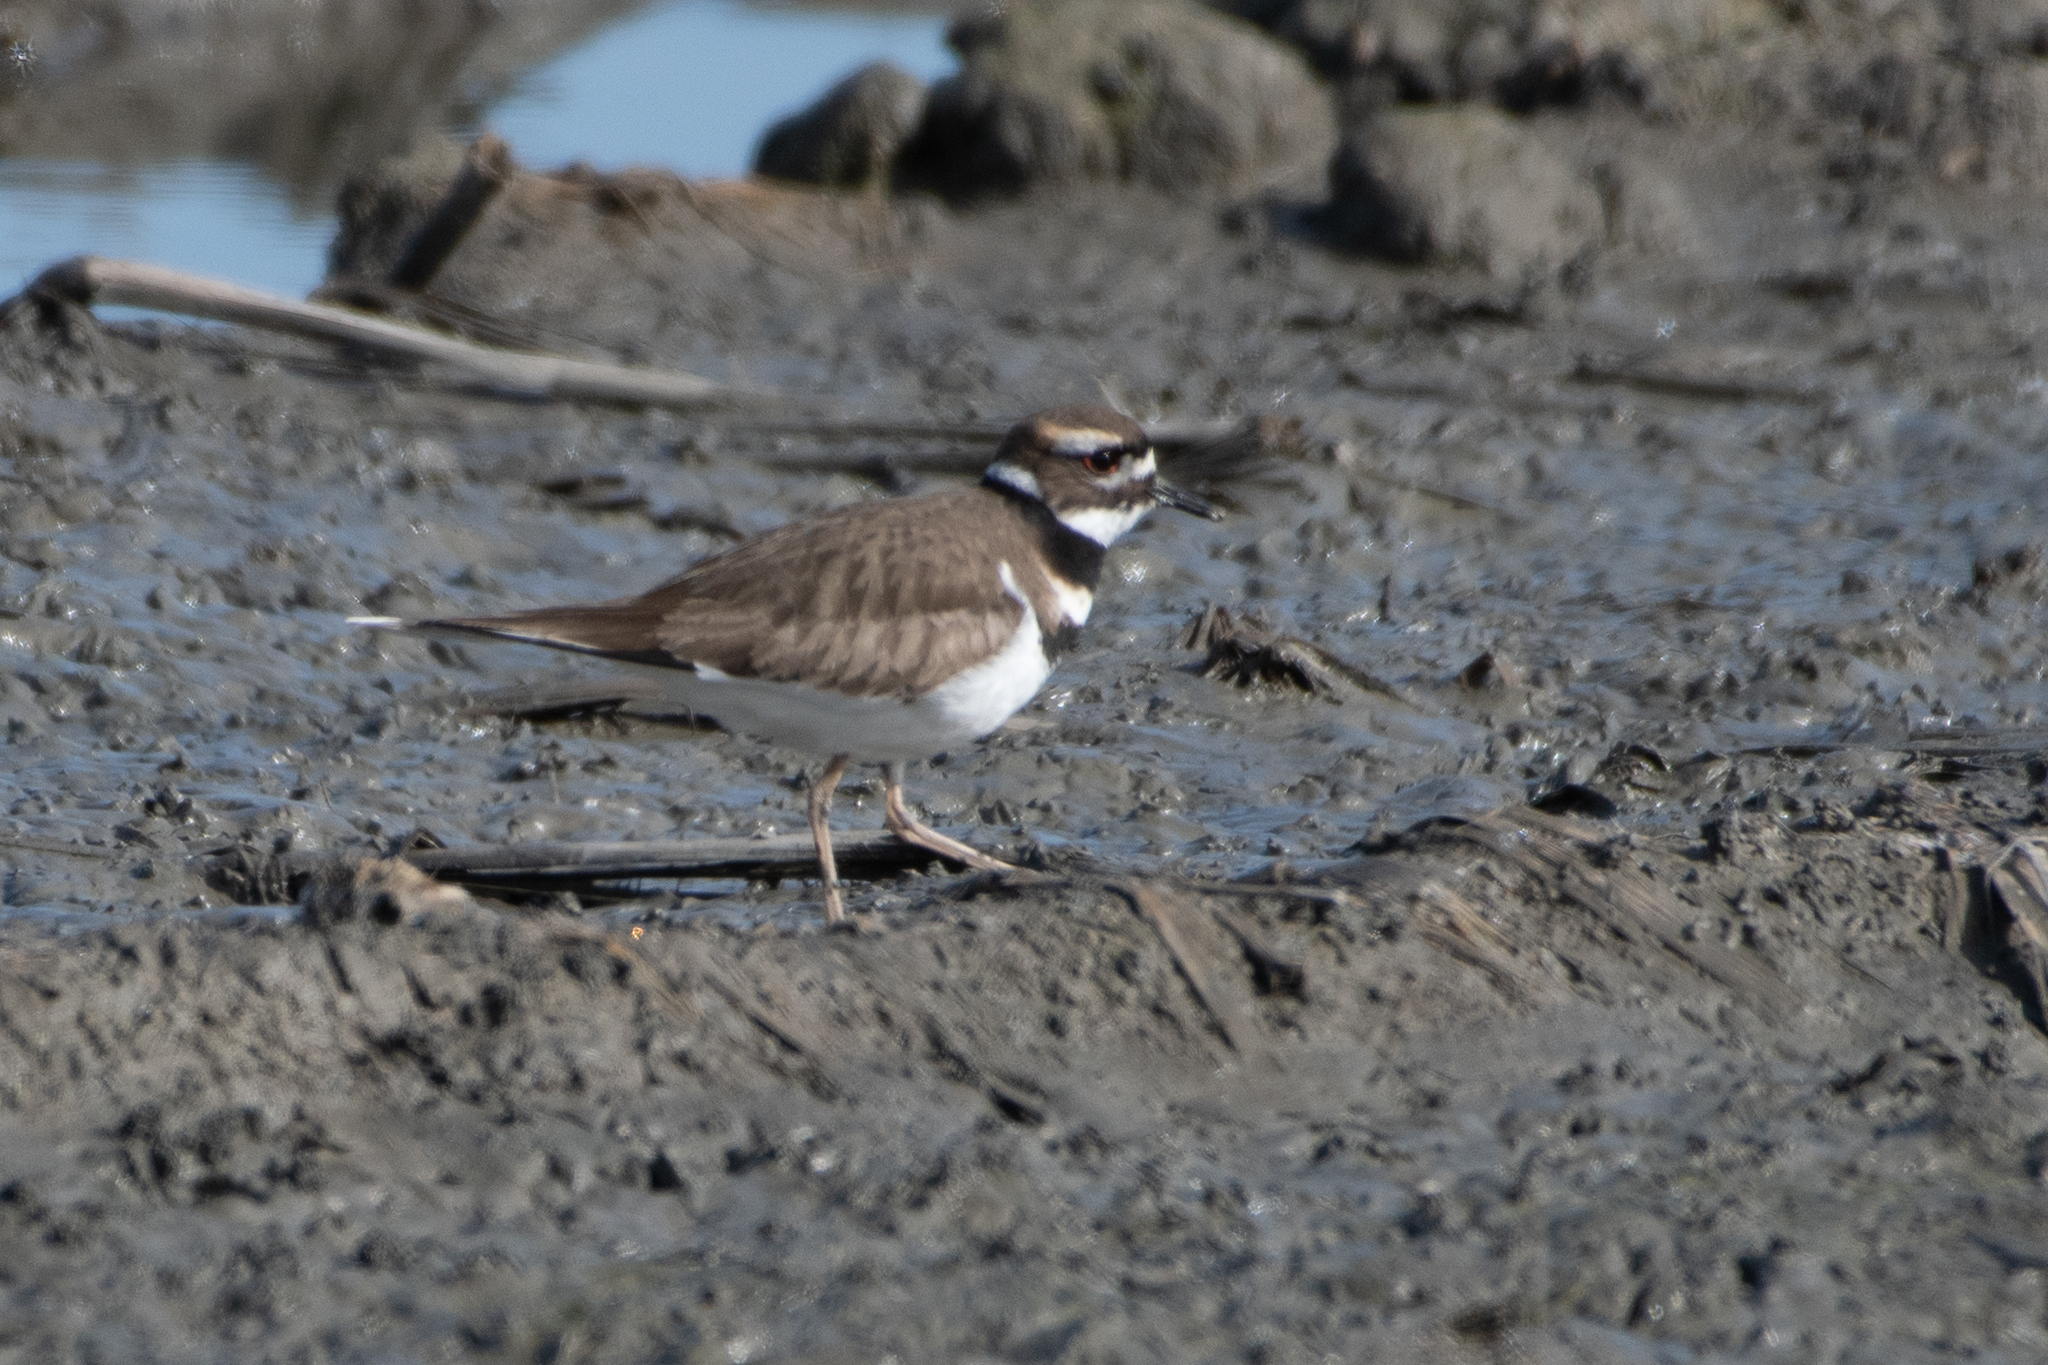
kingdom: Animalia
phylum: Chordata
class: Aves
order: Charadriiformes
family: Charadriidae
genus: Charadrius
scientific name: Charadrius vociferus
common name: Killdeer
